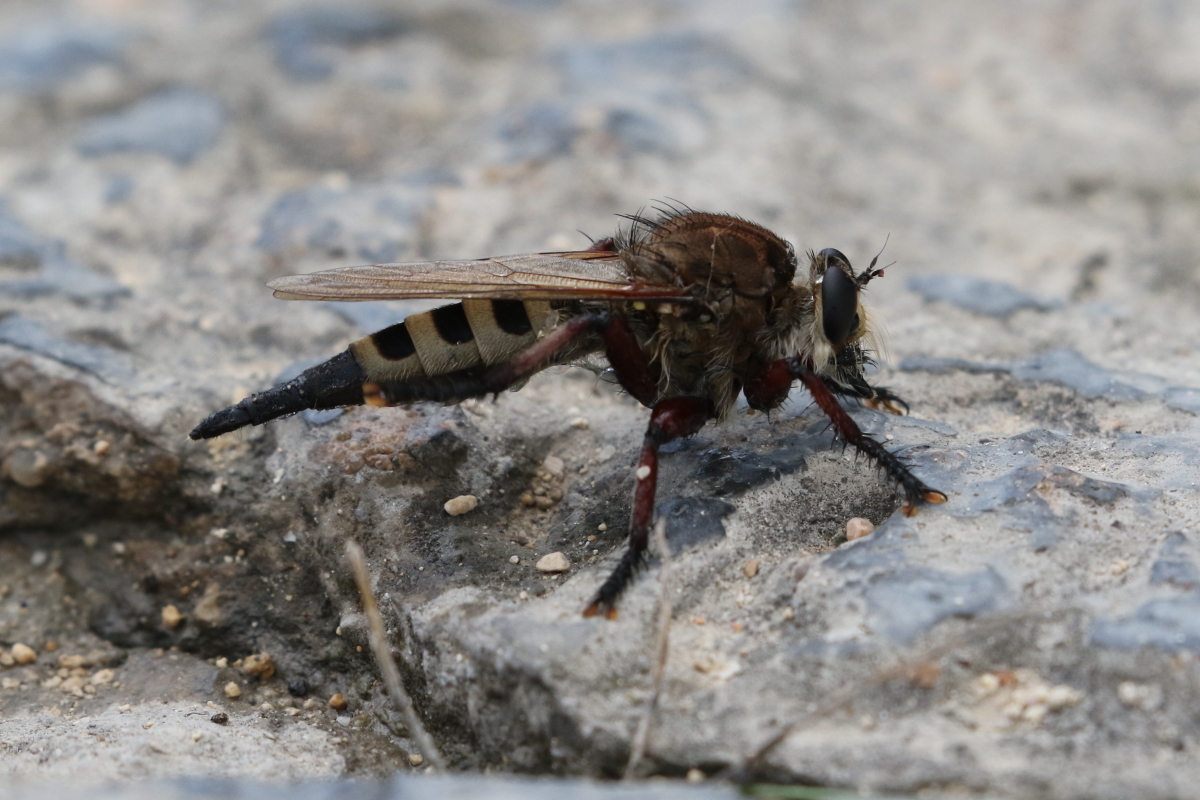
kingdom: Animalia
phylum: Arthropoda
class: Insecta
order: Diptera
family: Asilidae
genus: Promachus
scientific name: Promachus hinei
